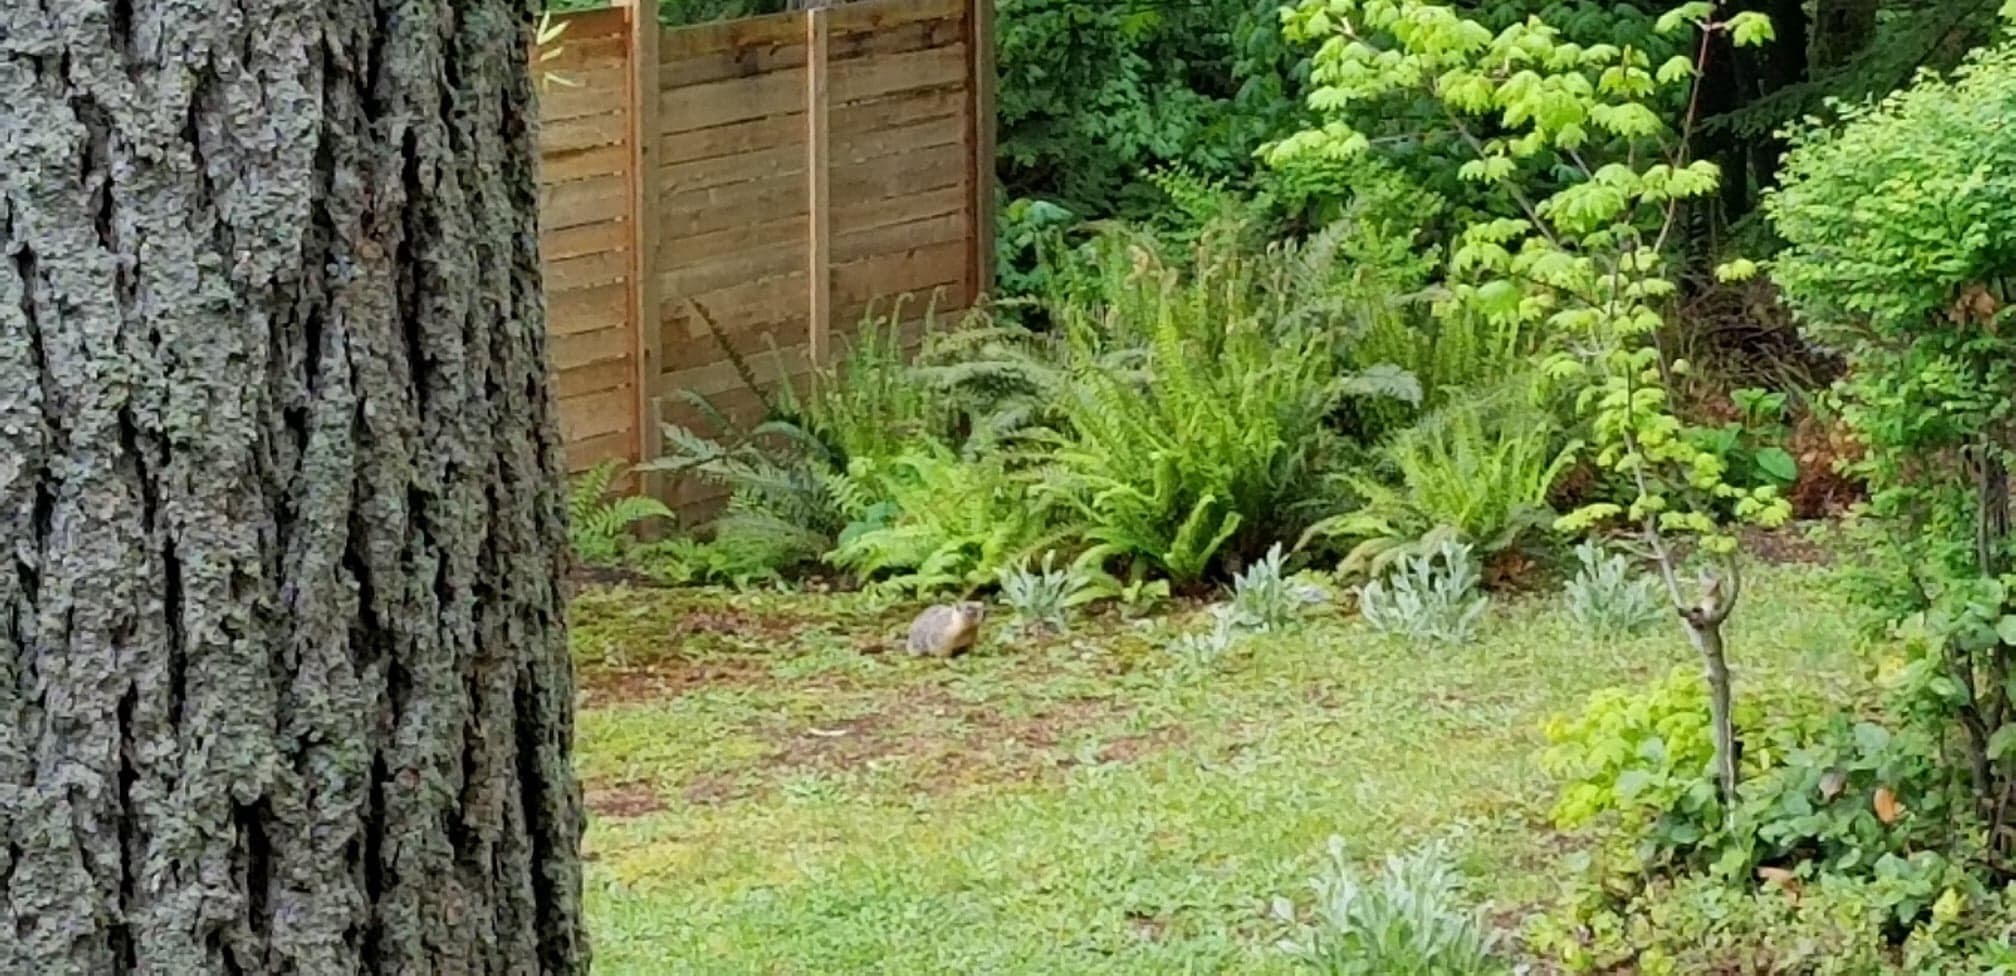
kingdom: Animalia
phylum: Chordata
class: Mammalia
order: Rodentia
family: Sciuridae
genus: Marmota
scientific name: Marmota flaviventris
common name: Yellow-bellied marmot
